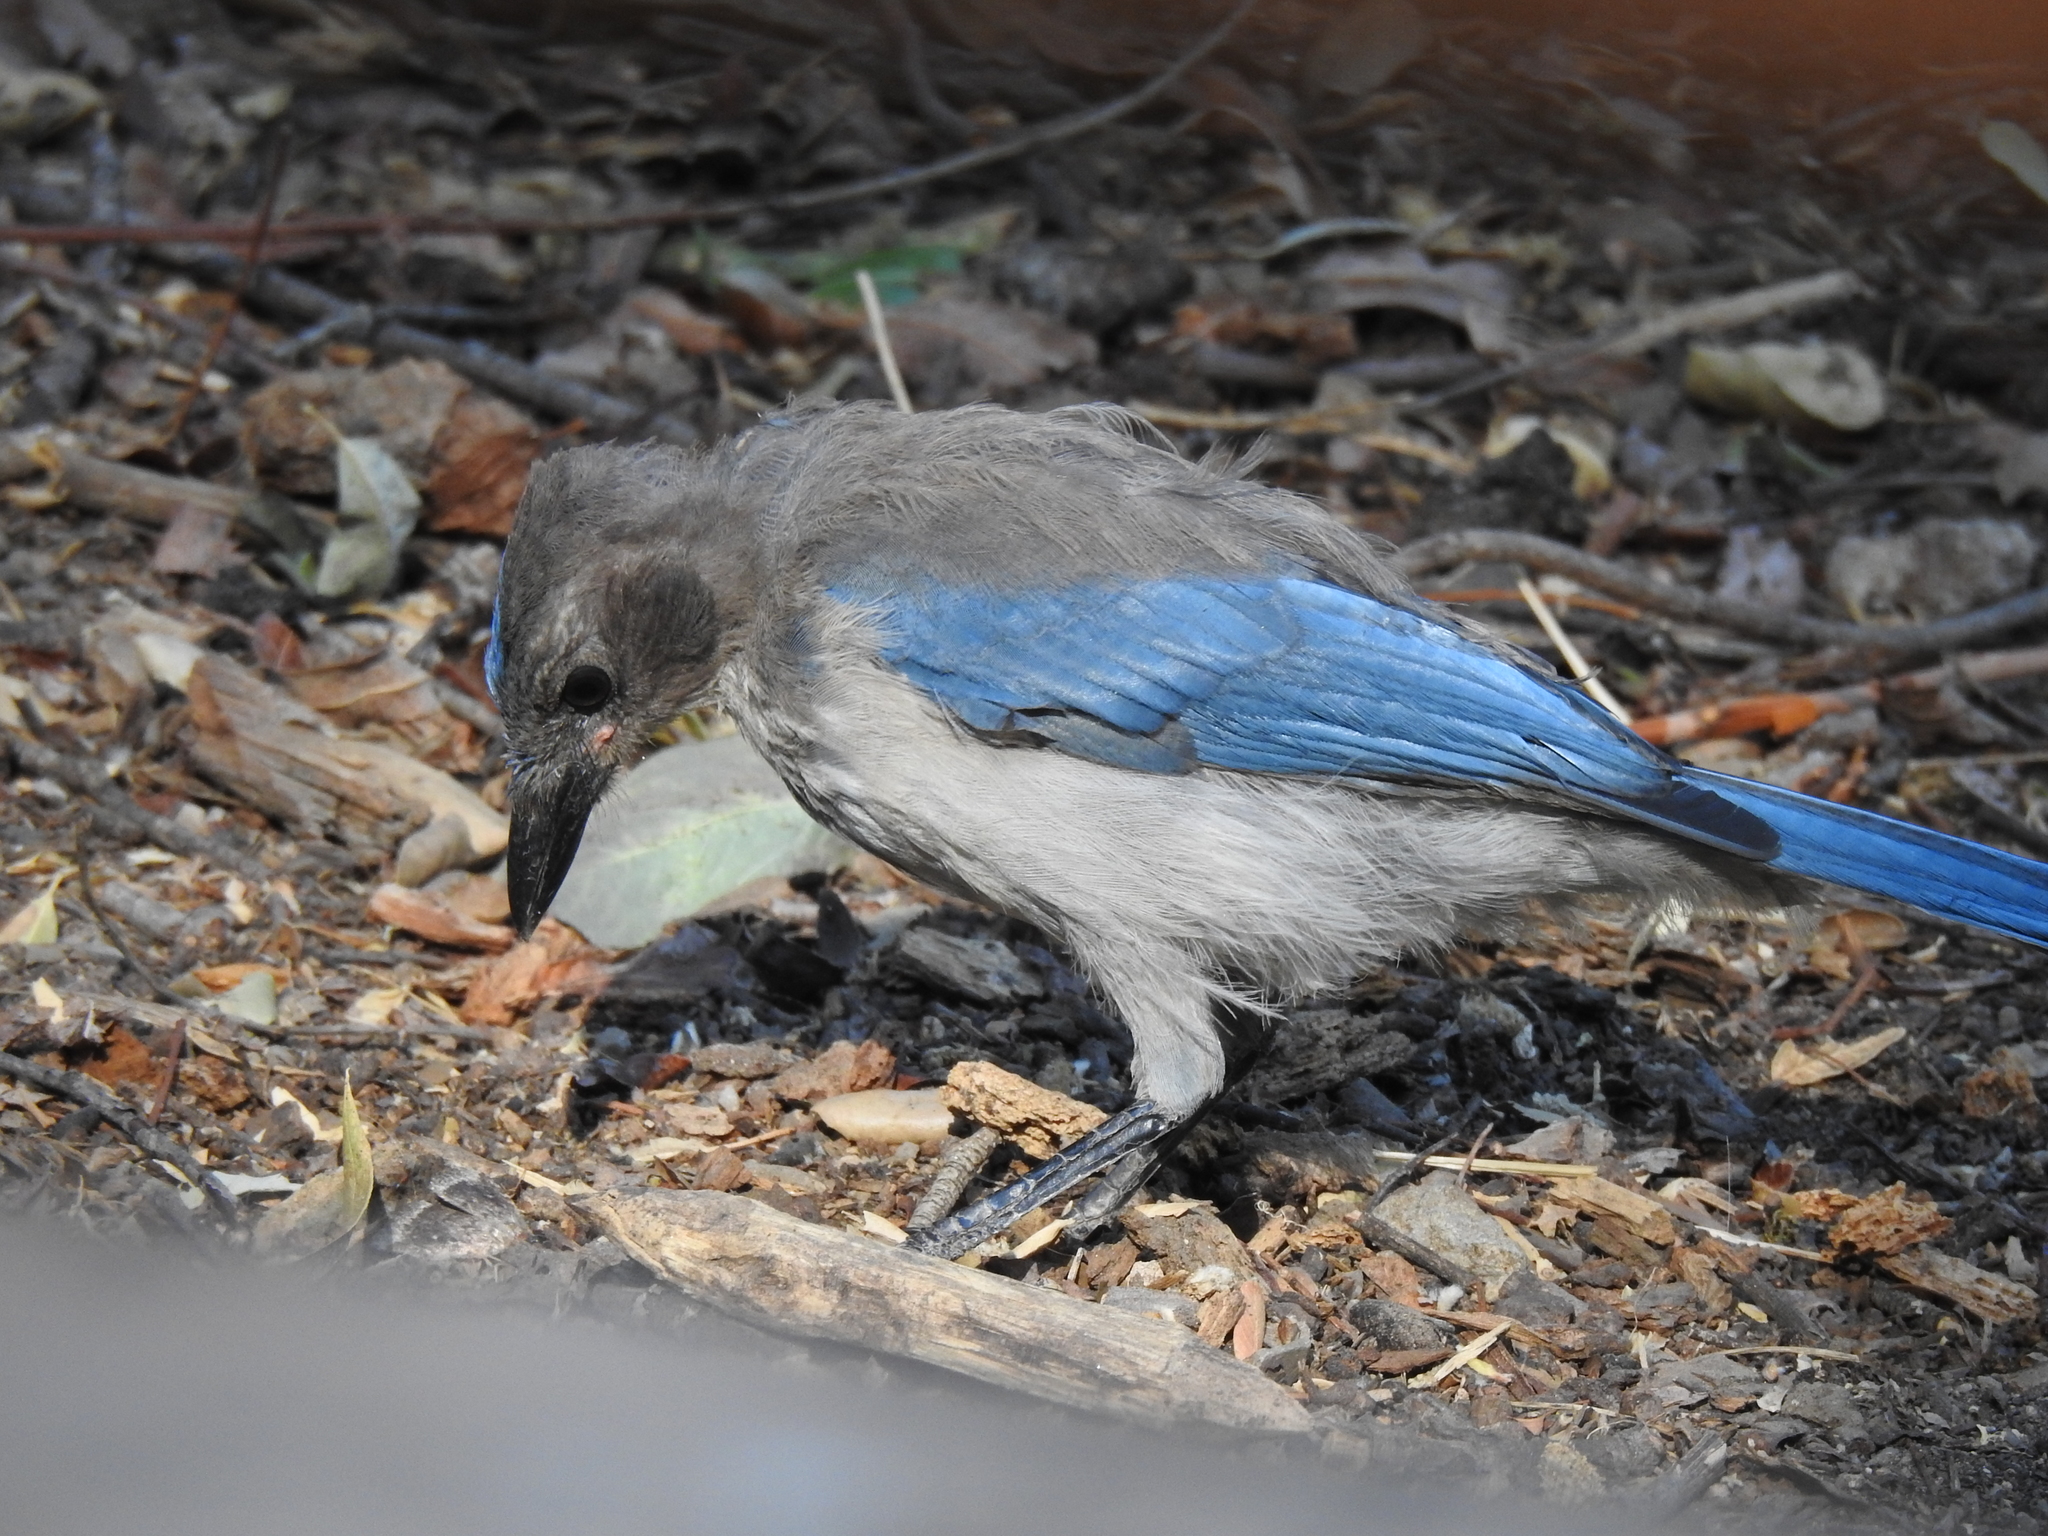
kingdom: Animalia
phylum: Chordata
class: Aves
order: Passeriformes
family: Corvidae
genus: Aphelocoma
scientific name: Aphelocoma californica
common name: California scrub-jay
